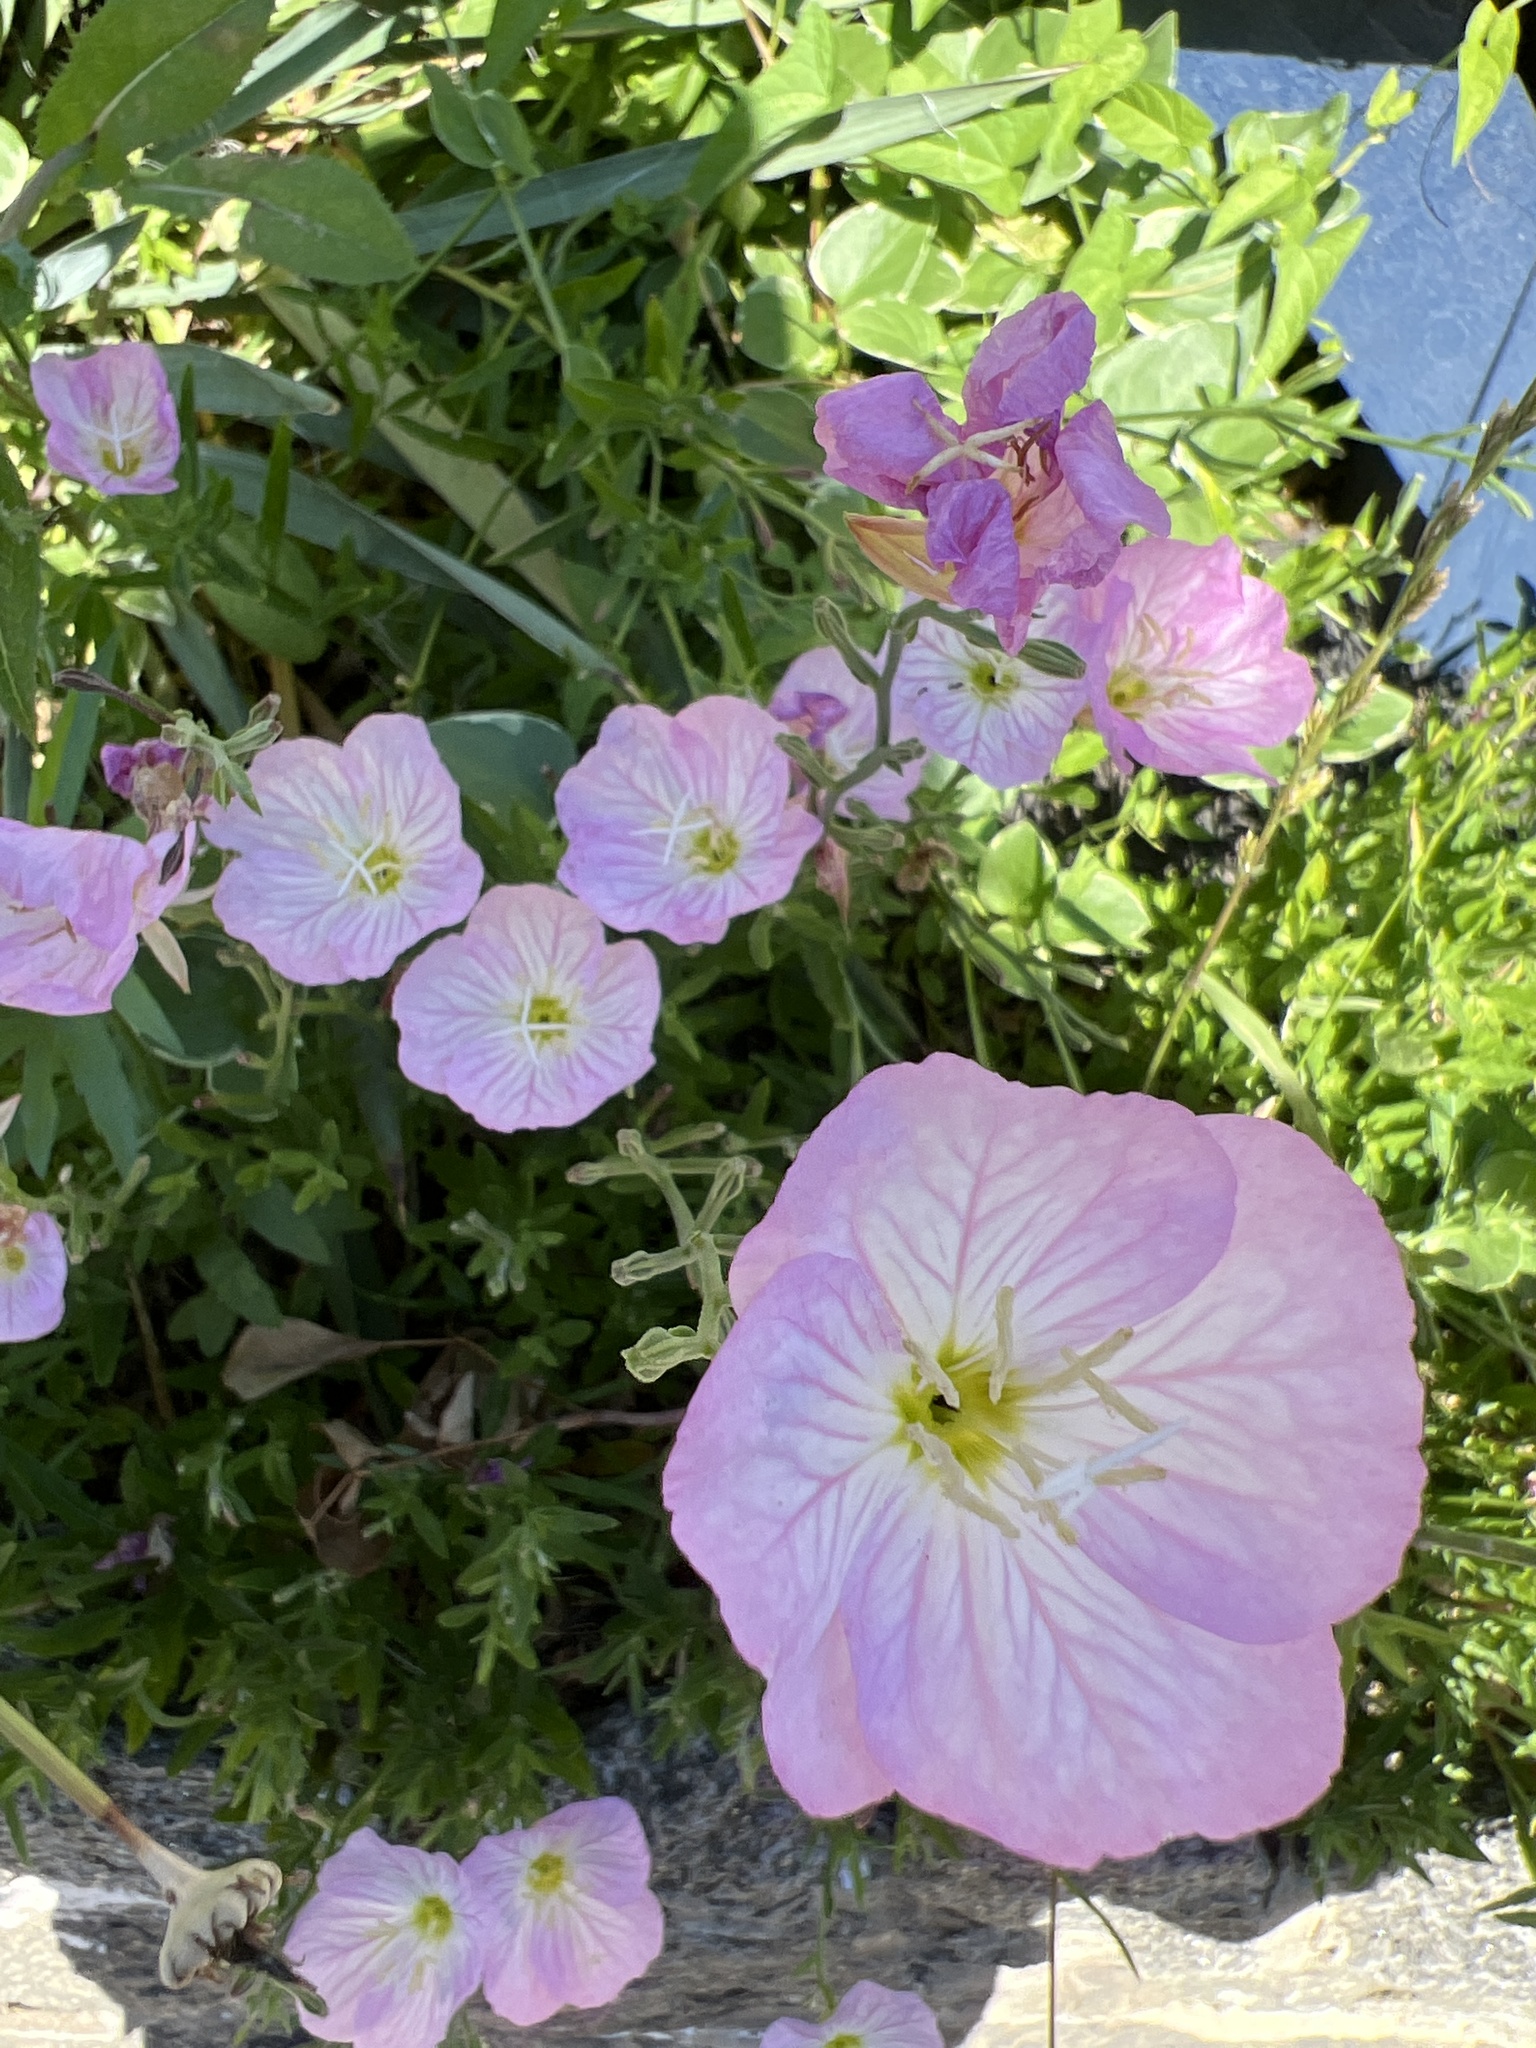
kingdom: Plantae
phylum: Tracheophyta
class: Magnoliopsida
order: Myrtales
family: Onagraceae
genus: Oenothera
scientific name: Oenothera speciosa
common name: White evening-primrose
